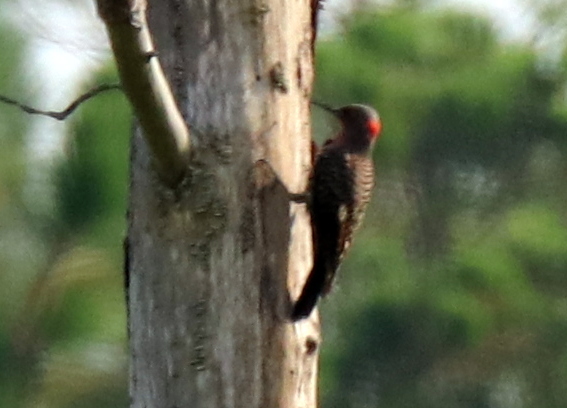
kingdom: Animalia
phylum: Chordata
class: Aves
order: Piciformes
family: Picidae
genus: Colaptes
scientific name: Colaptes auratus
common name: Northern flicker
